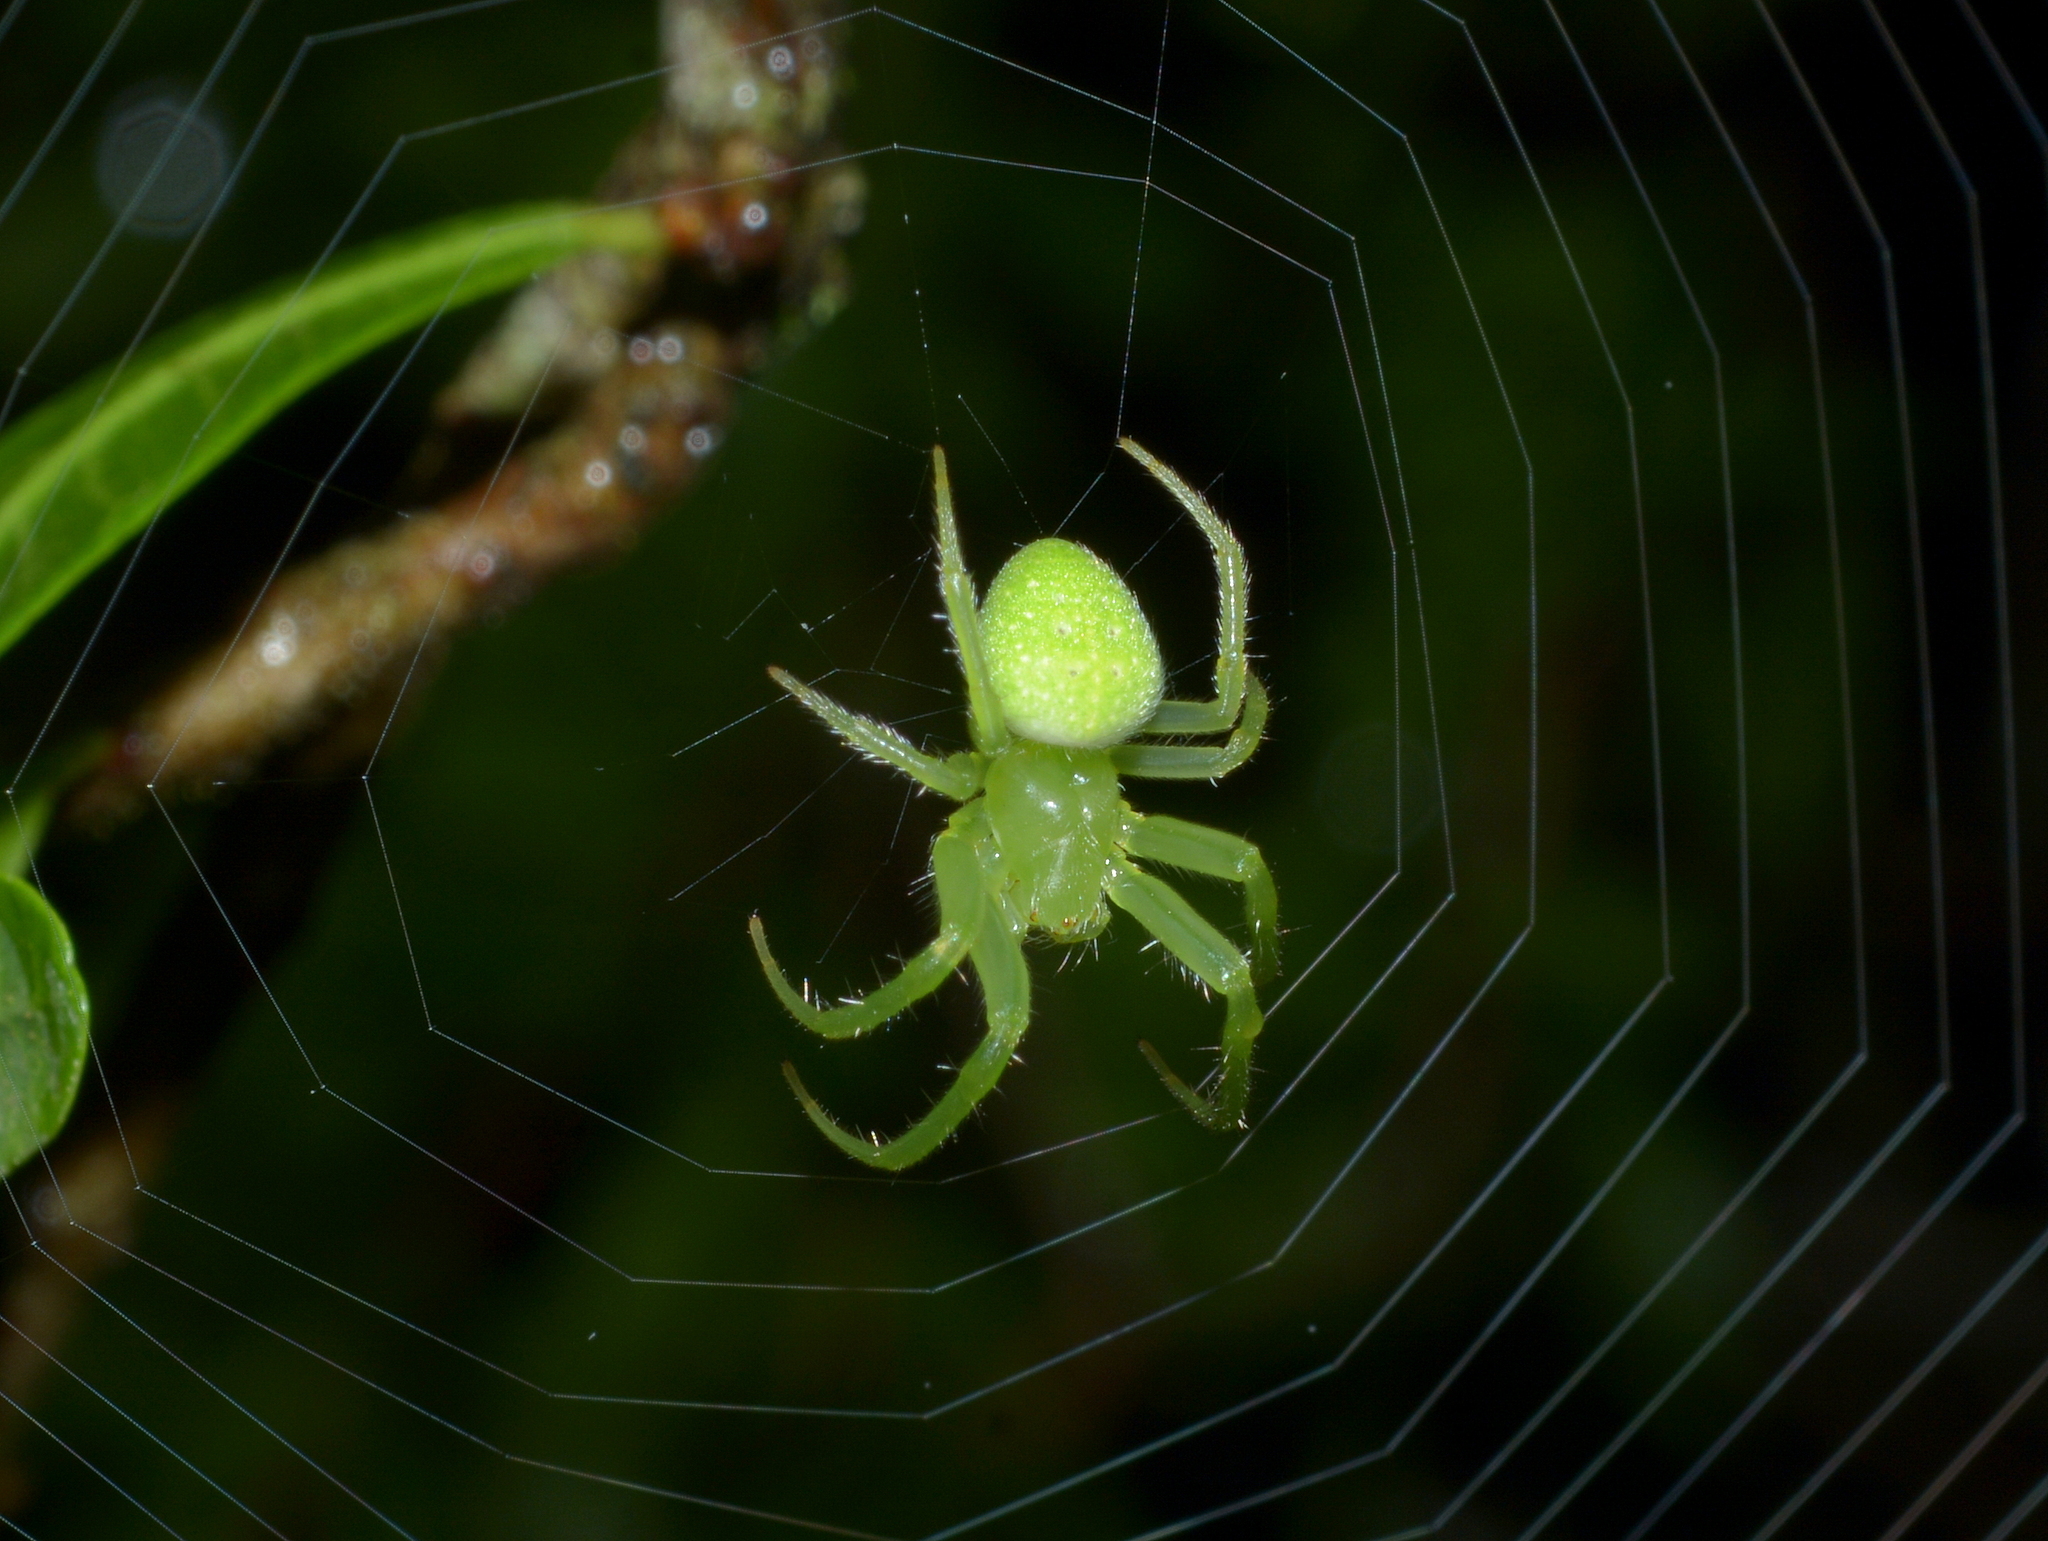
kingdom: Animalia
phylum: Arthropoda
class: Arachnida
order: Araneae
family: Araneidae
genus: Araneus
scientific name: Araneus uniformis
